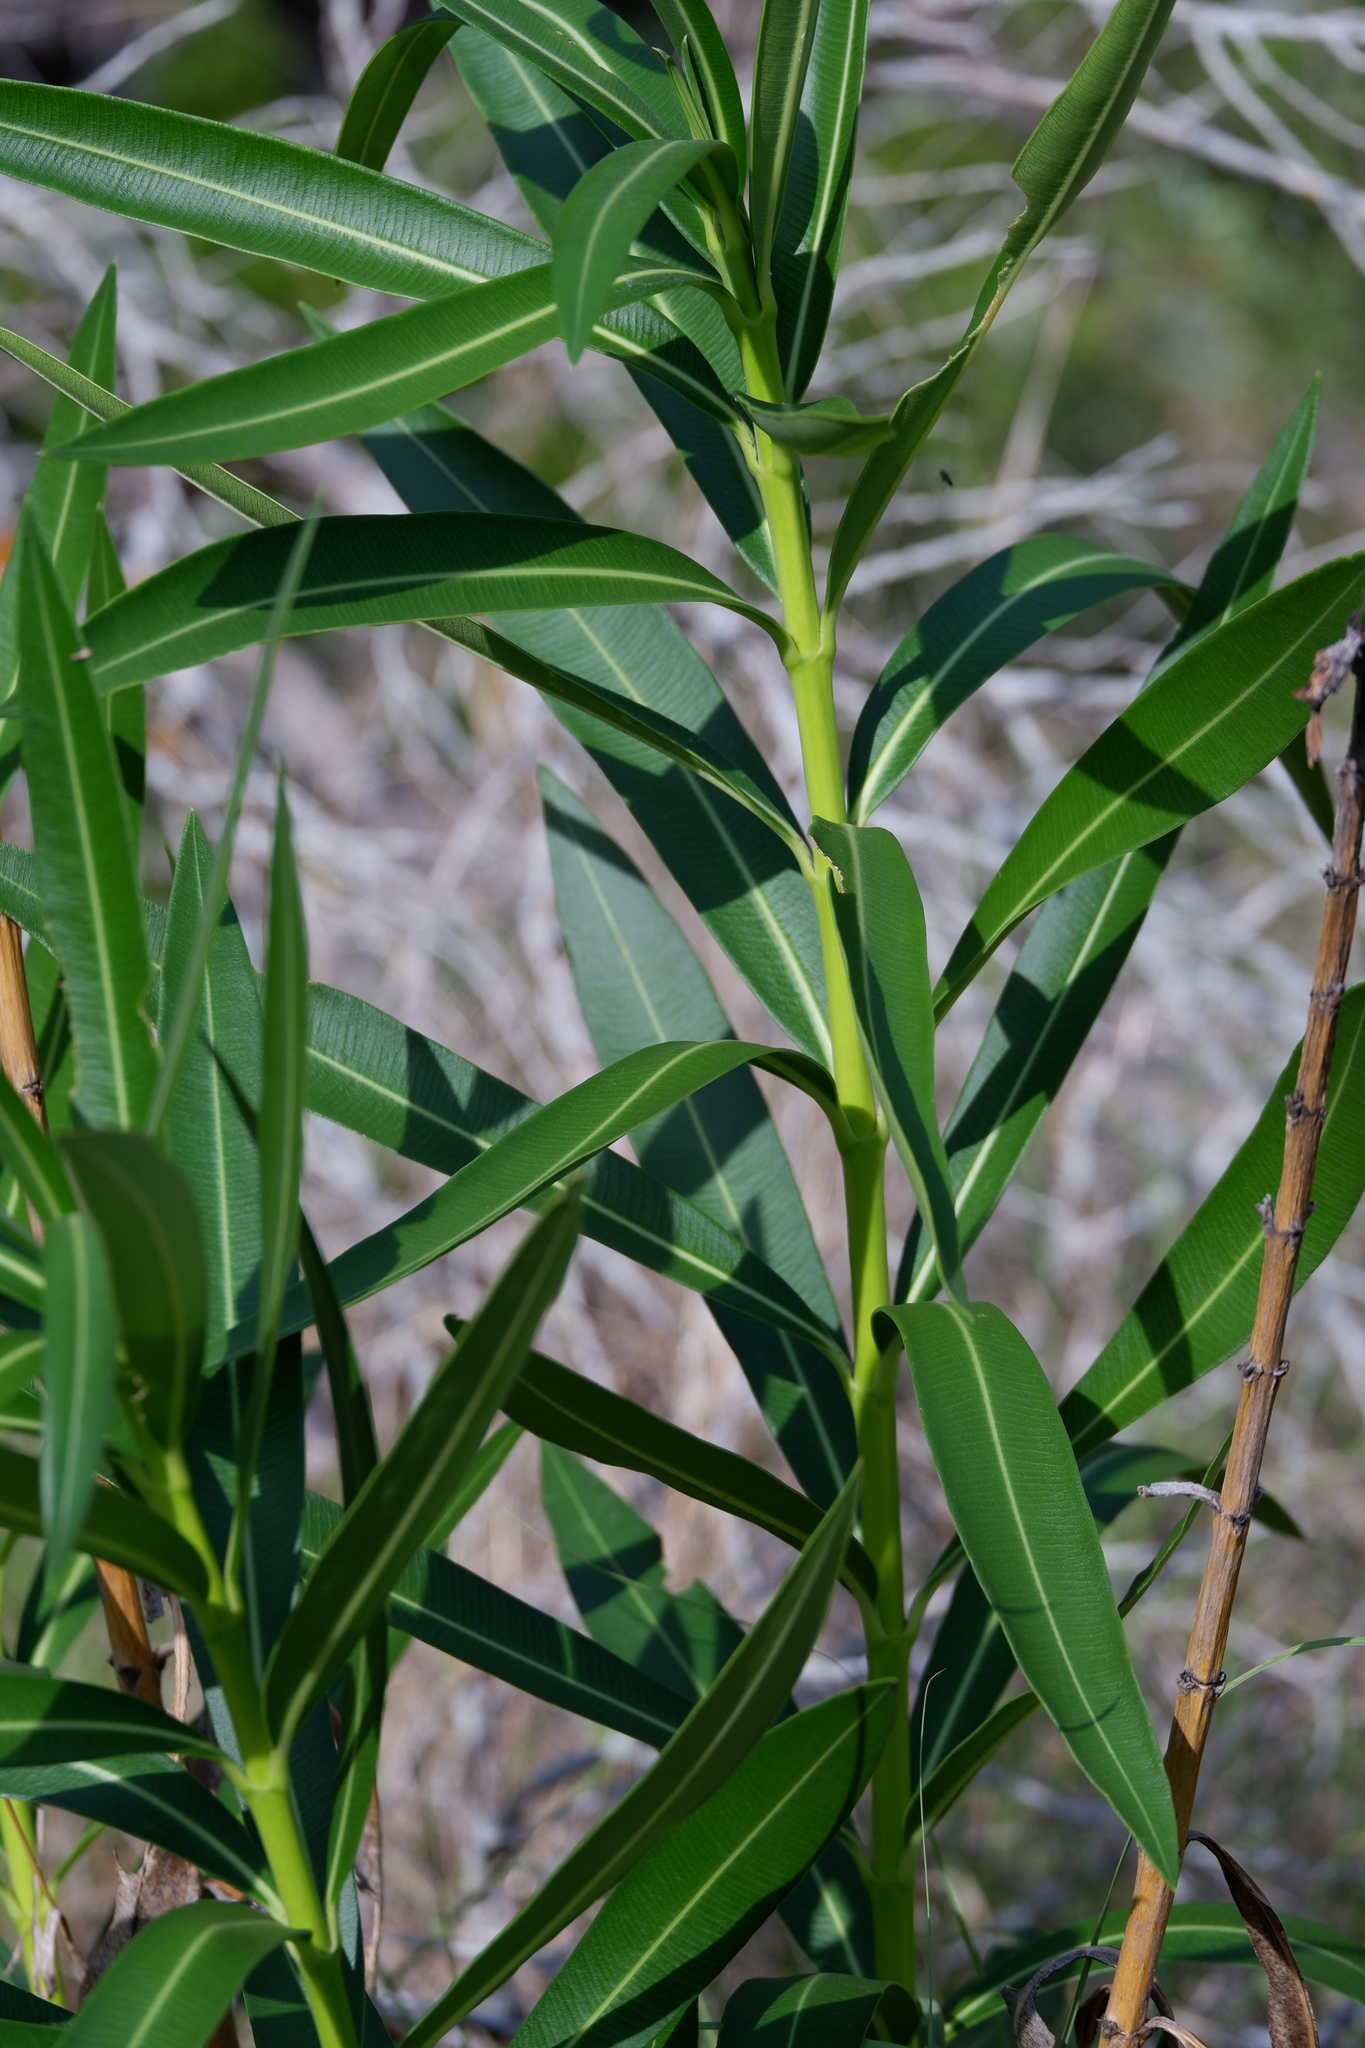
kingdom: Plantae
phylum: Tracheophyta
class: Magnoliopsida
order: Gentianales
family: Apocynaceae
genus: Nerium
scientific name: Nerium oleander
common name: Oleander
